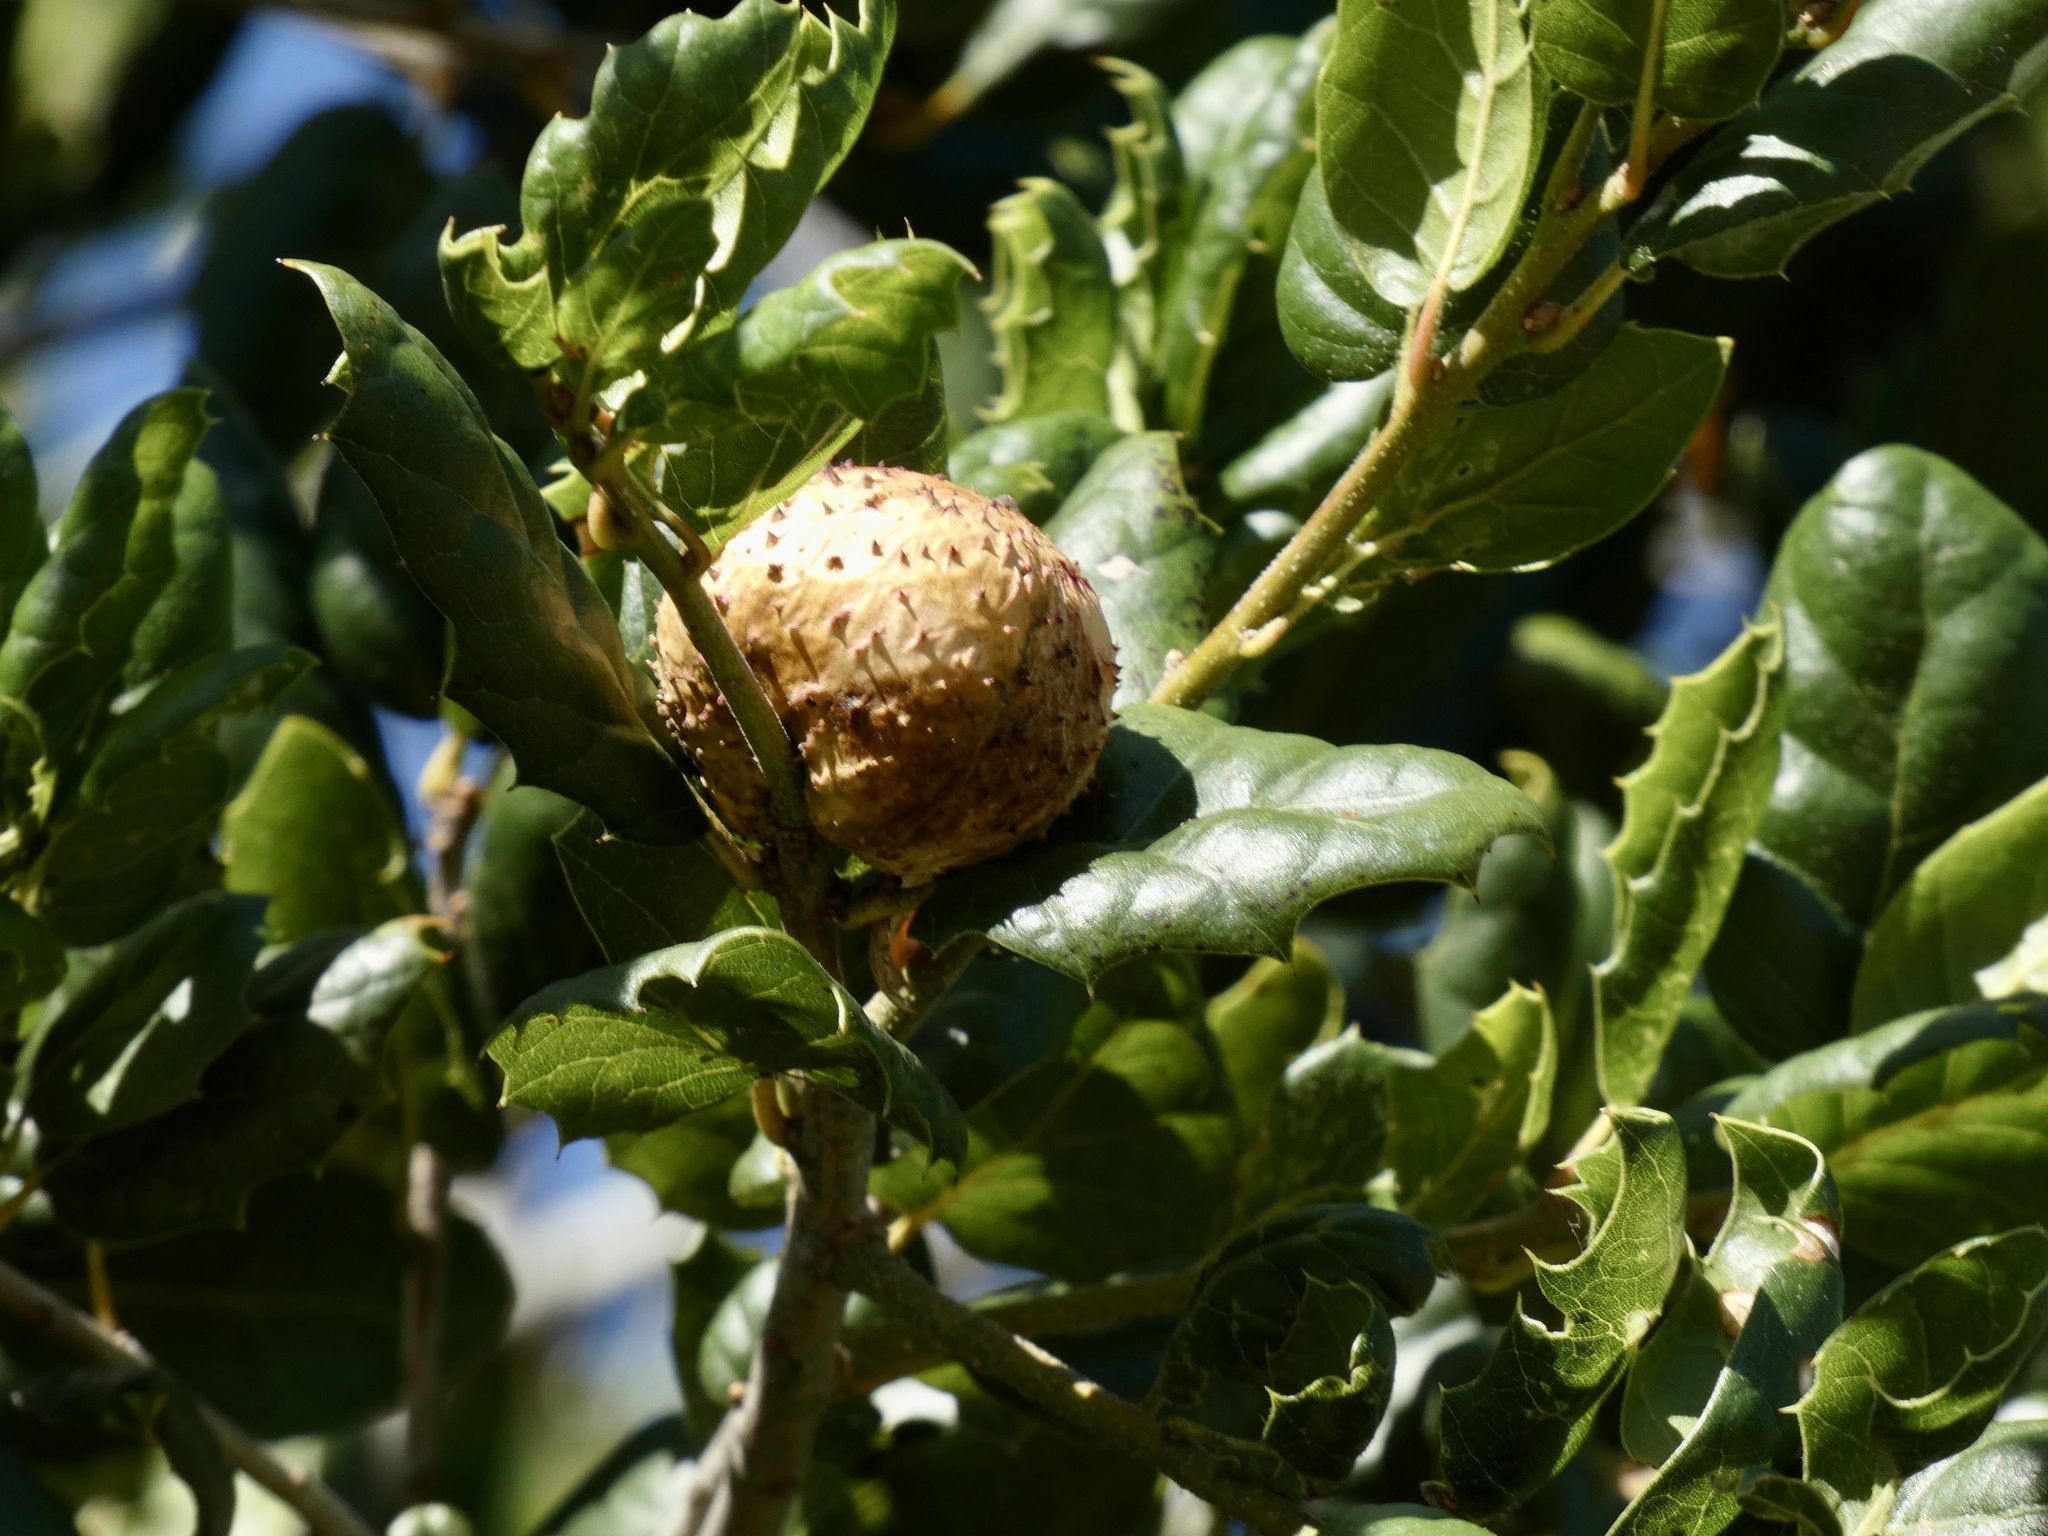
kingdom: Animalia
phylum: Arthropoda
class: Insecta
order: Hymenoptera
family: Cynipidae
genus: Amphibolips
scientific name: Amphibolips quercuspomiformis
